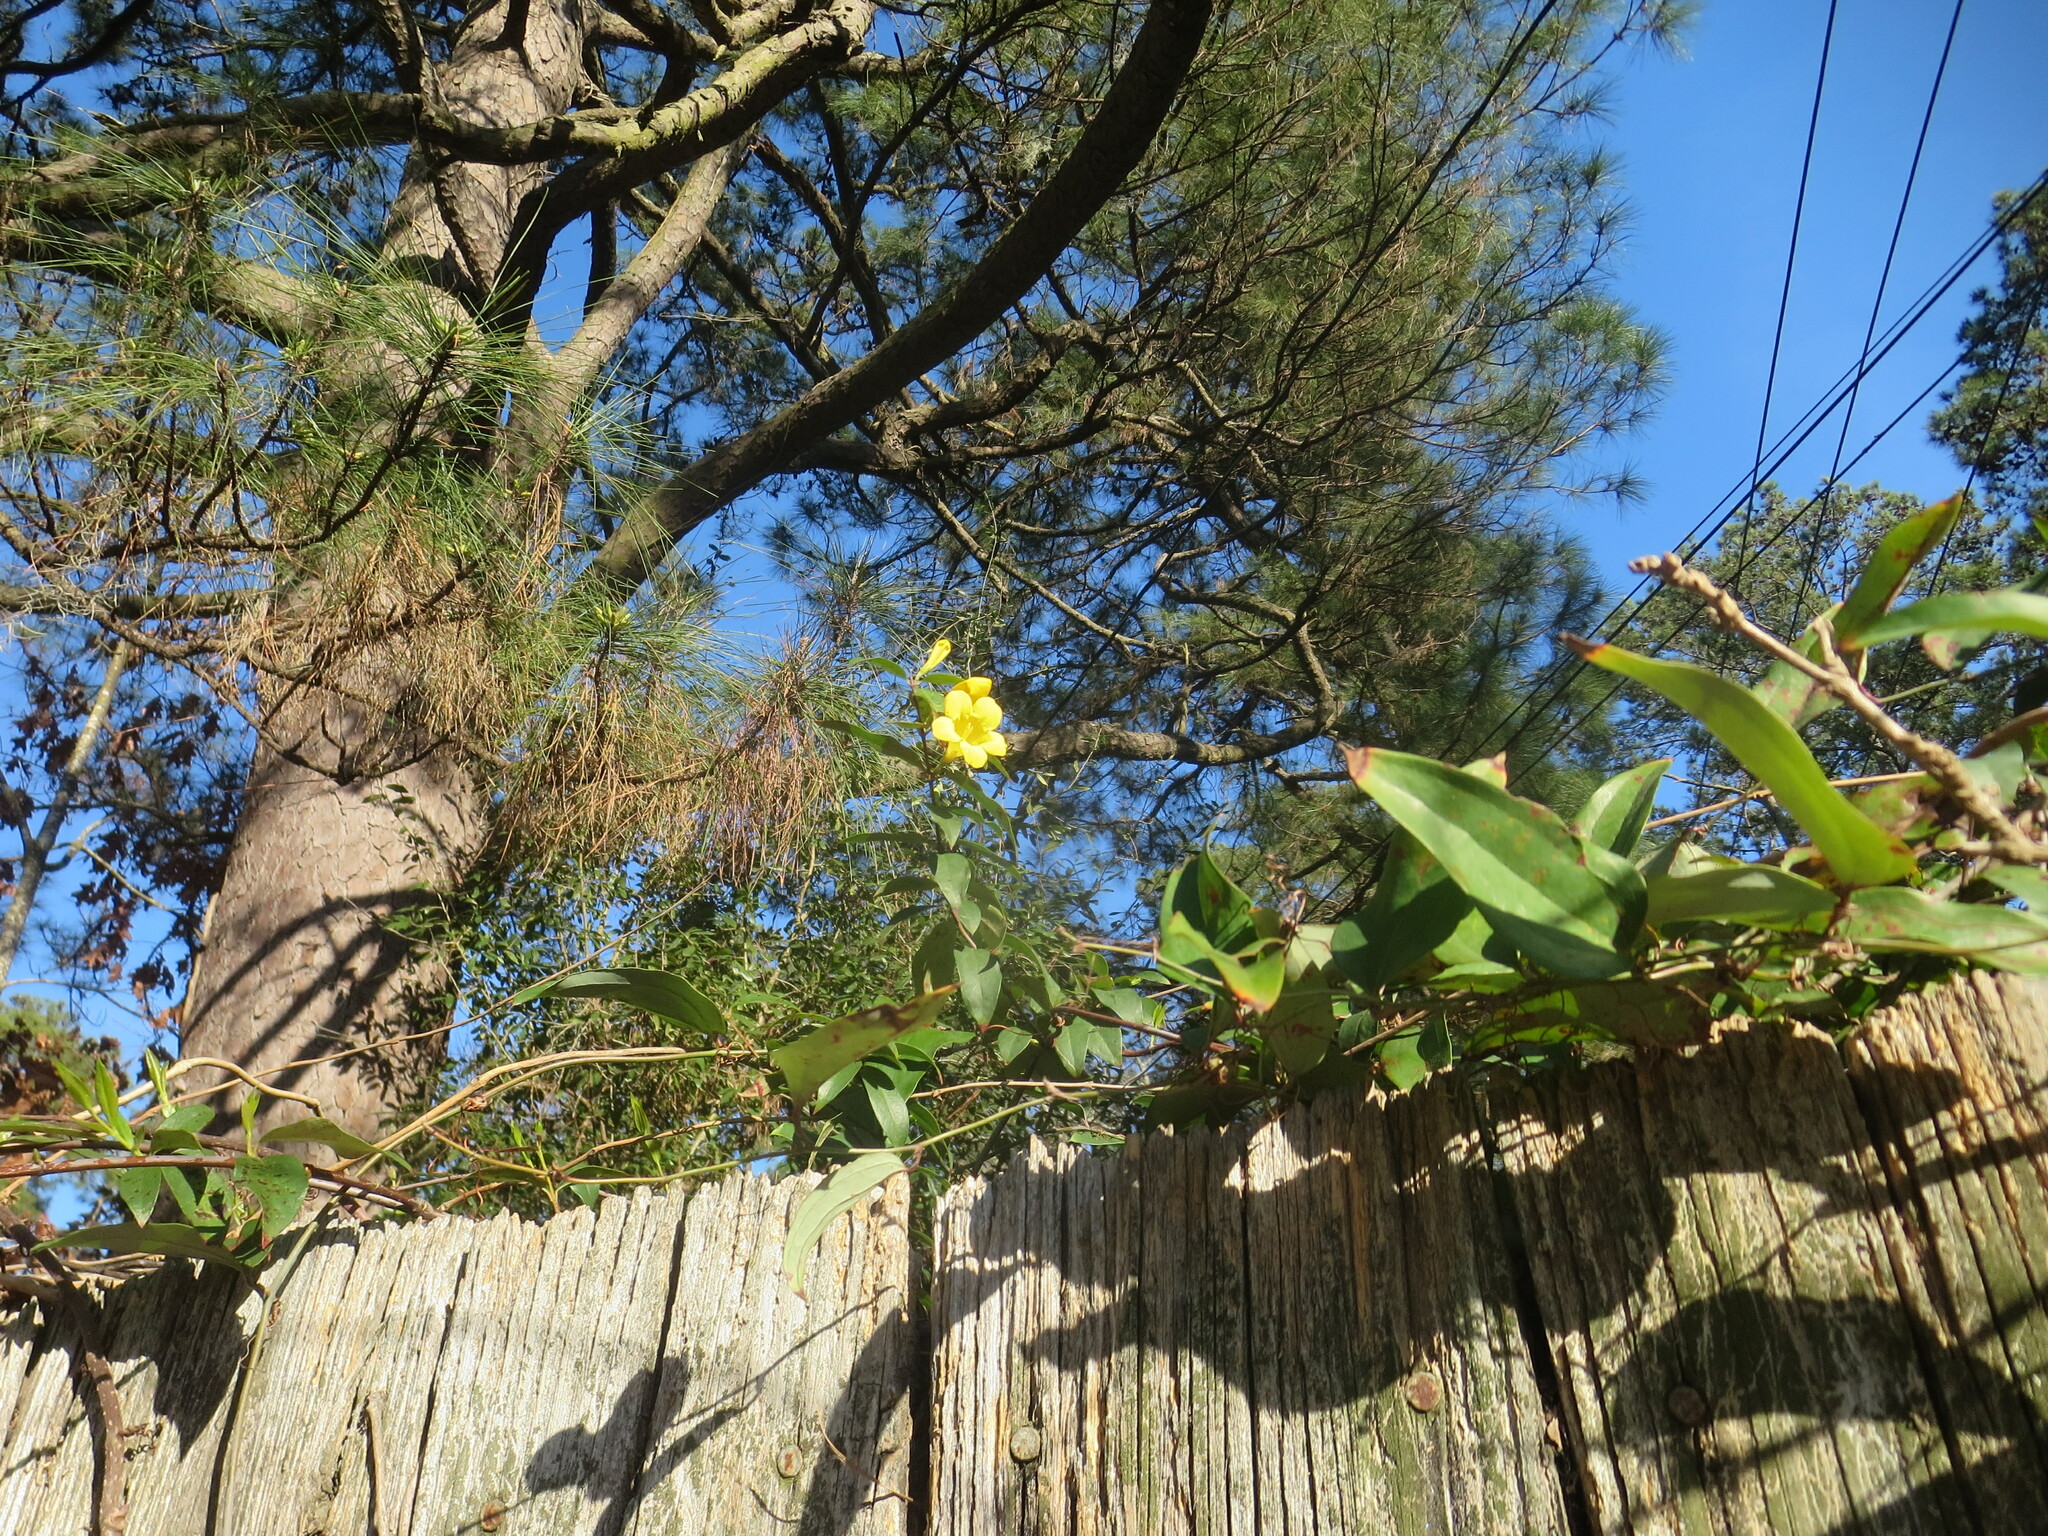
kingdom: Plantae
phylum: Tracheophyta
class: Magnoliopsida
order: Gentianales
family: Gelsemiaceae
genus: Gelsemium
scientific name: Gelsemium sempervirens
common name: Carolina-jasmine
